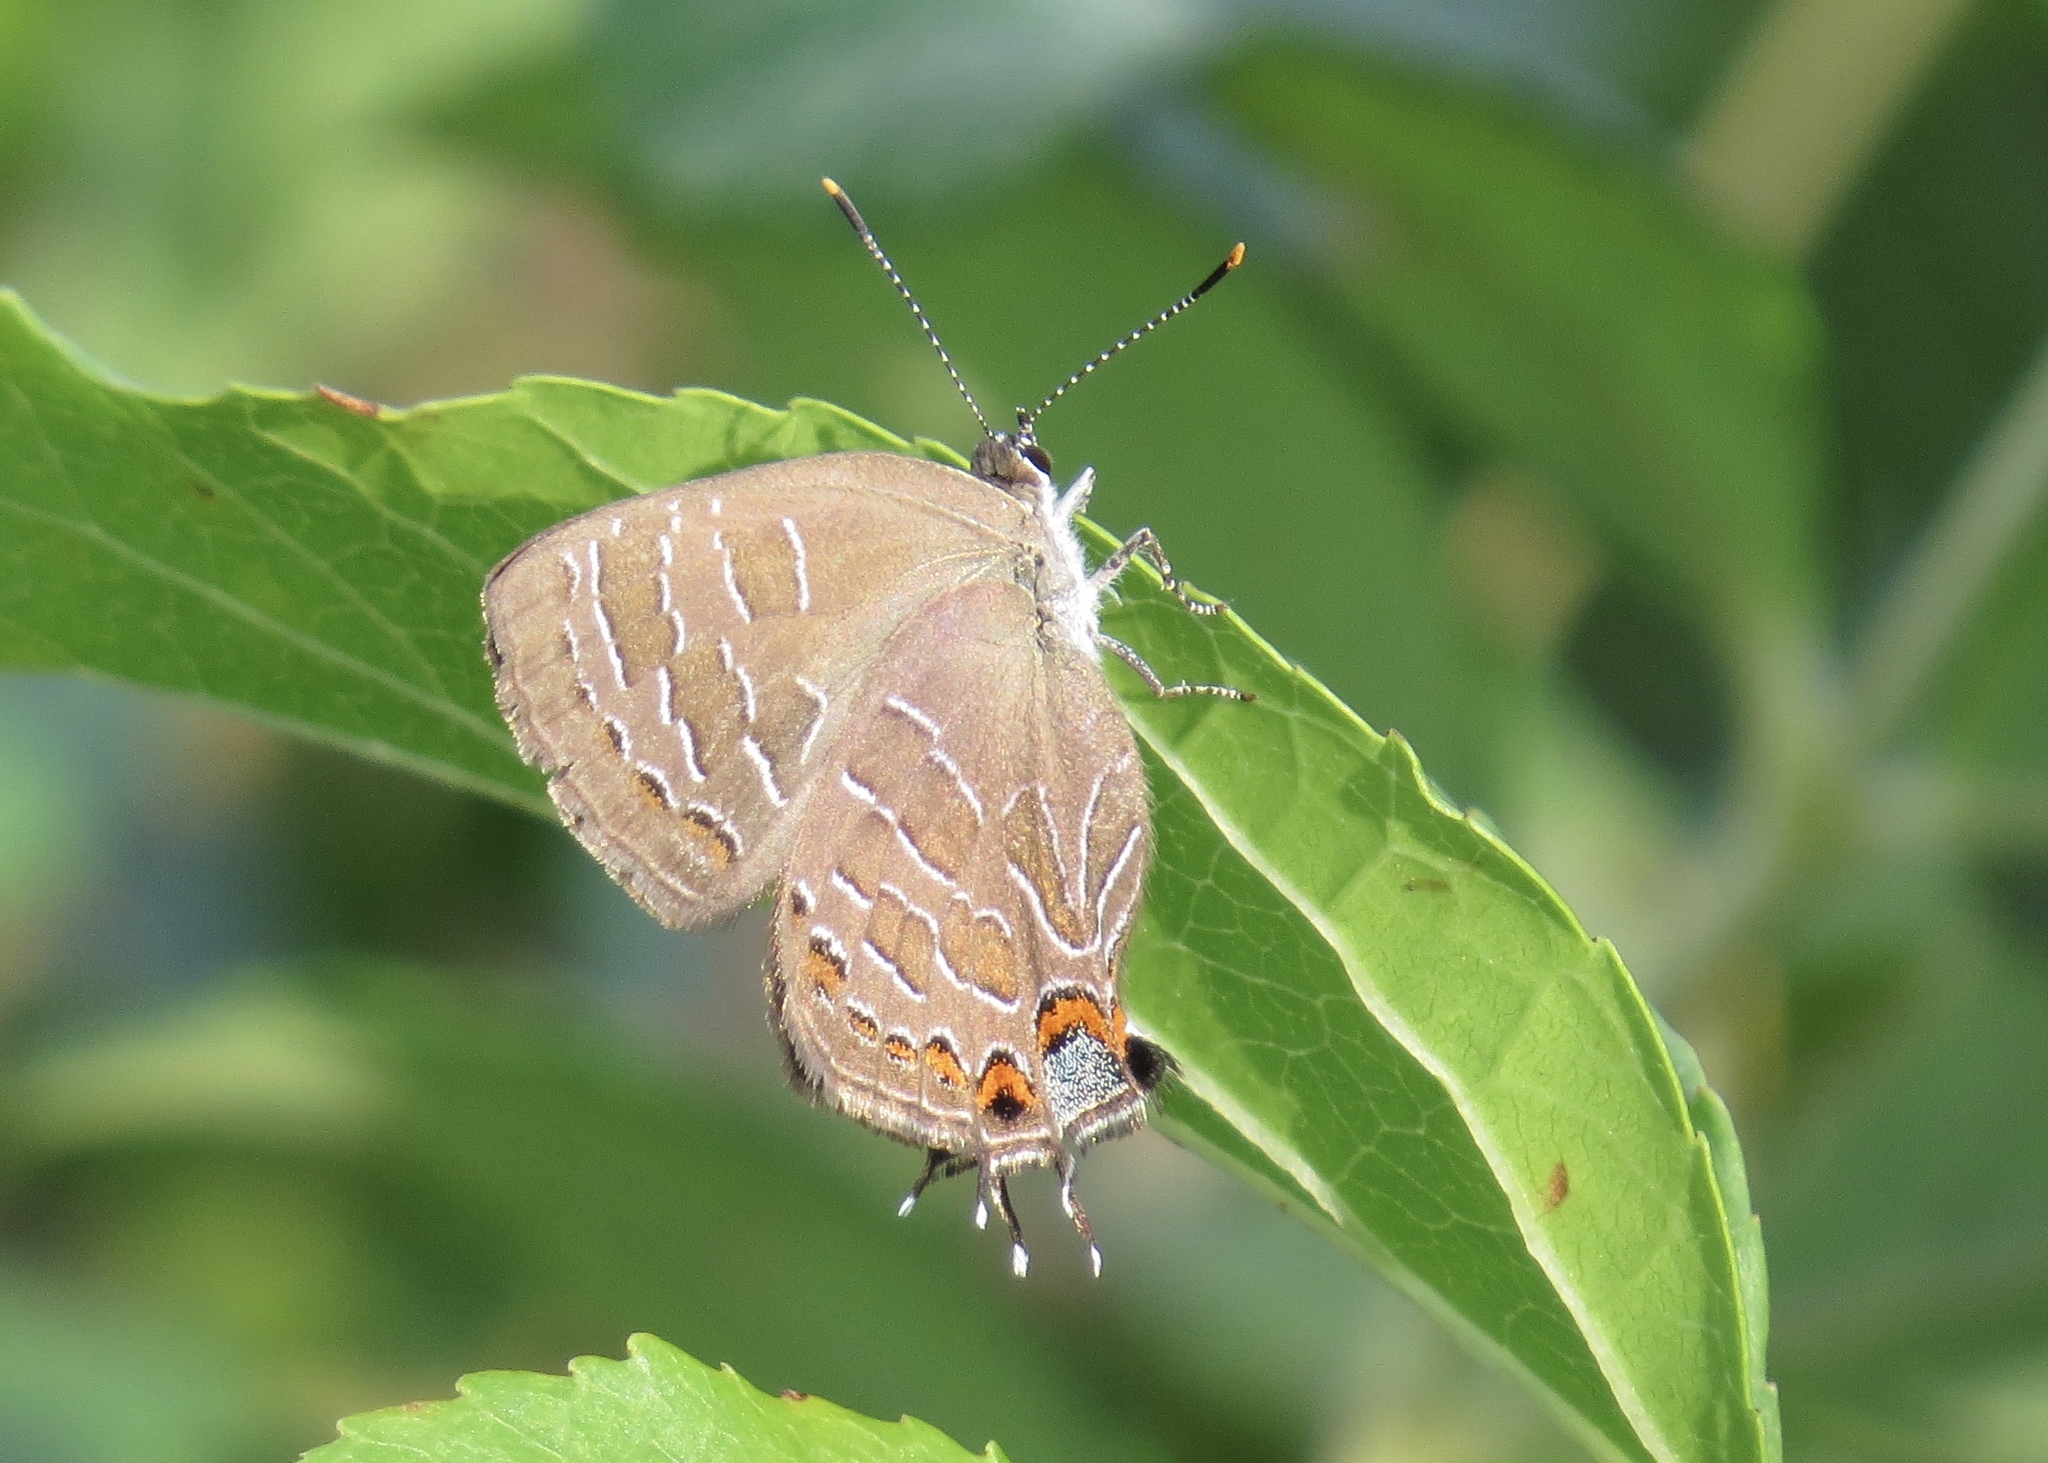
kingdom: Animalia
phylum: Arthropoda
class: Insecta
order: Lepidoptera
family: Lycaenidae
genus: Satyrium
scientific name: Satyrium liparops
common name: Striped hairstreak
